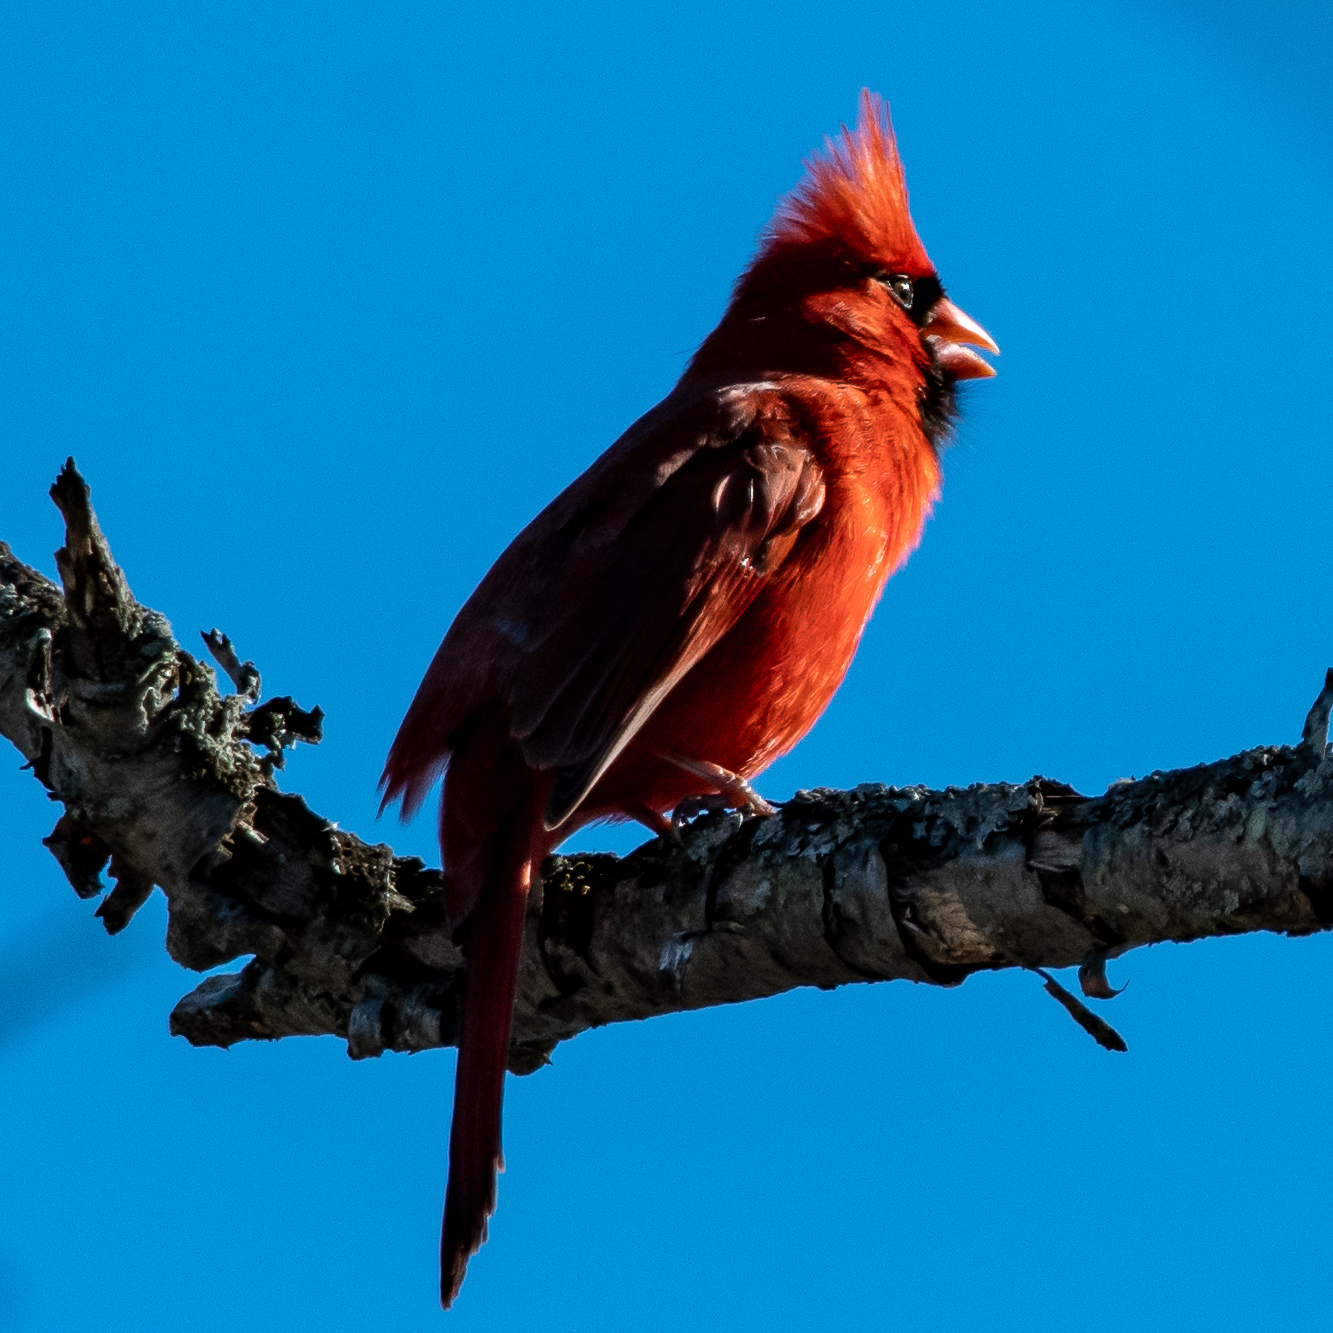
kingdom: Animalia
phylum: Chordata
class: Aves
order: Passeriformes
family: Cardinalidae
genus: Cardinalis
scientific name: Cardinalis cardinalis
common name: Northern cardinal
